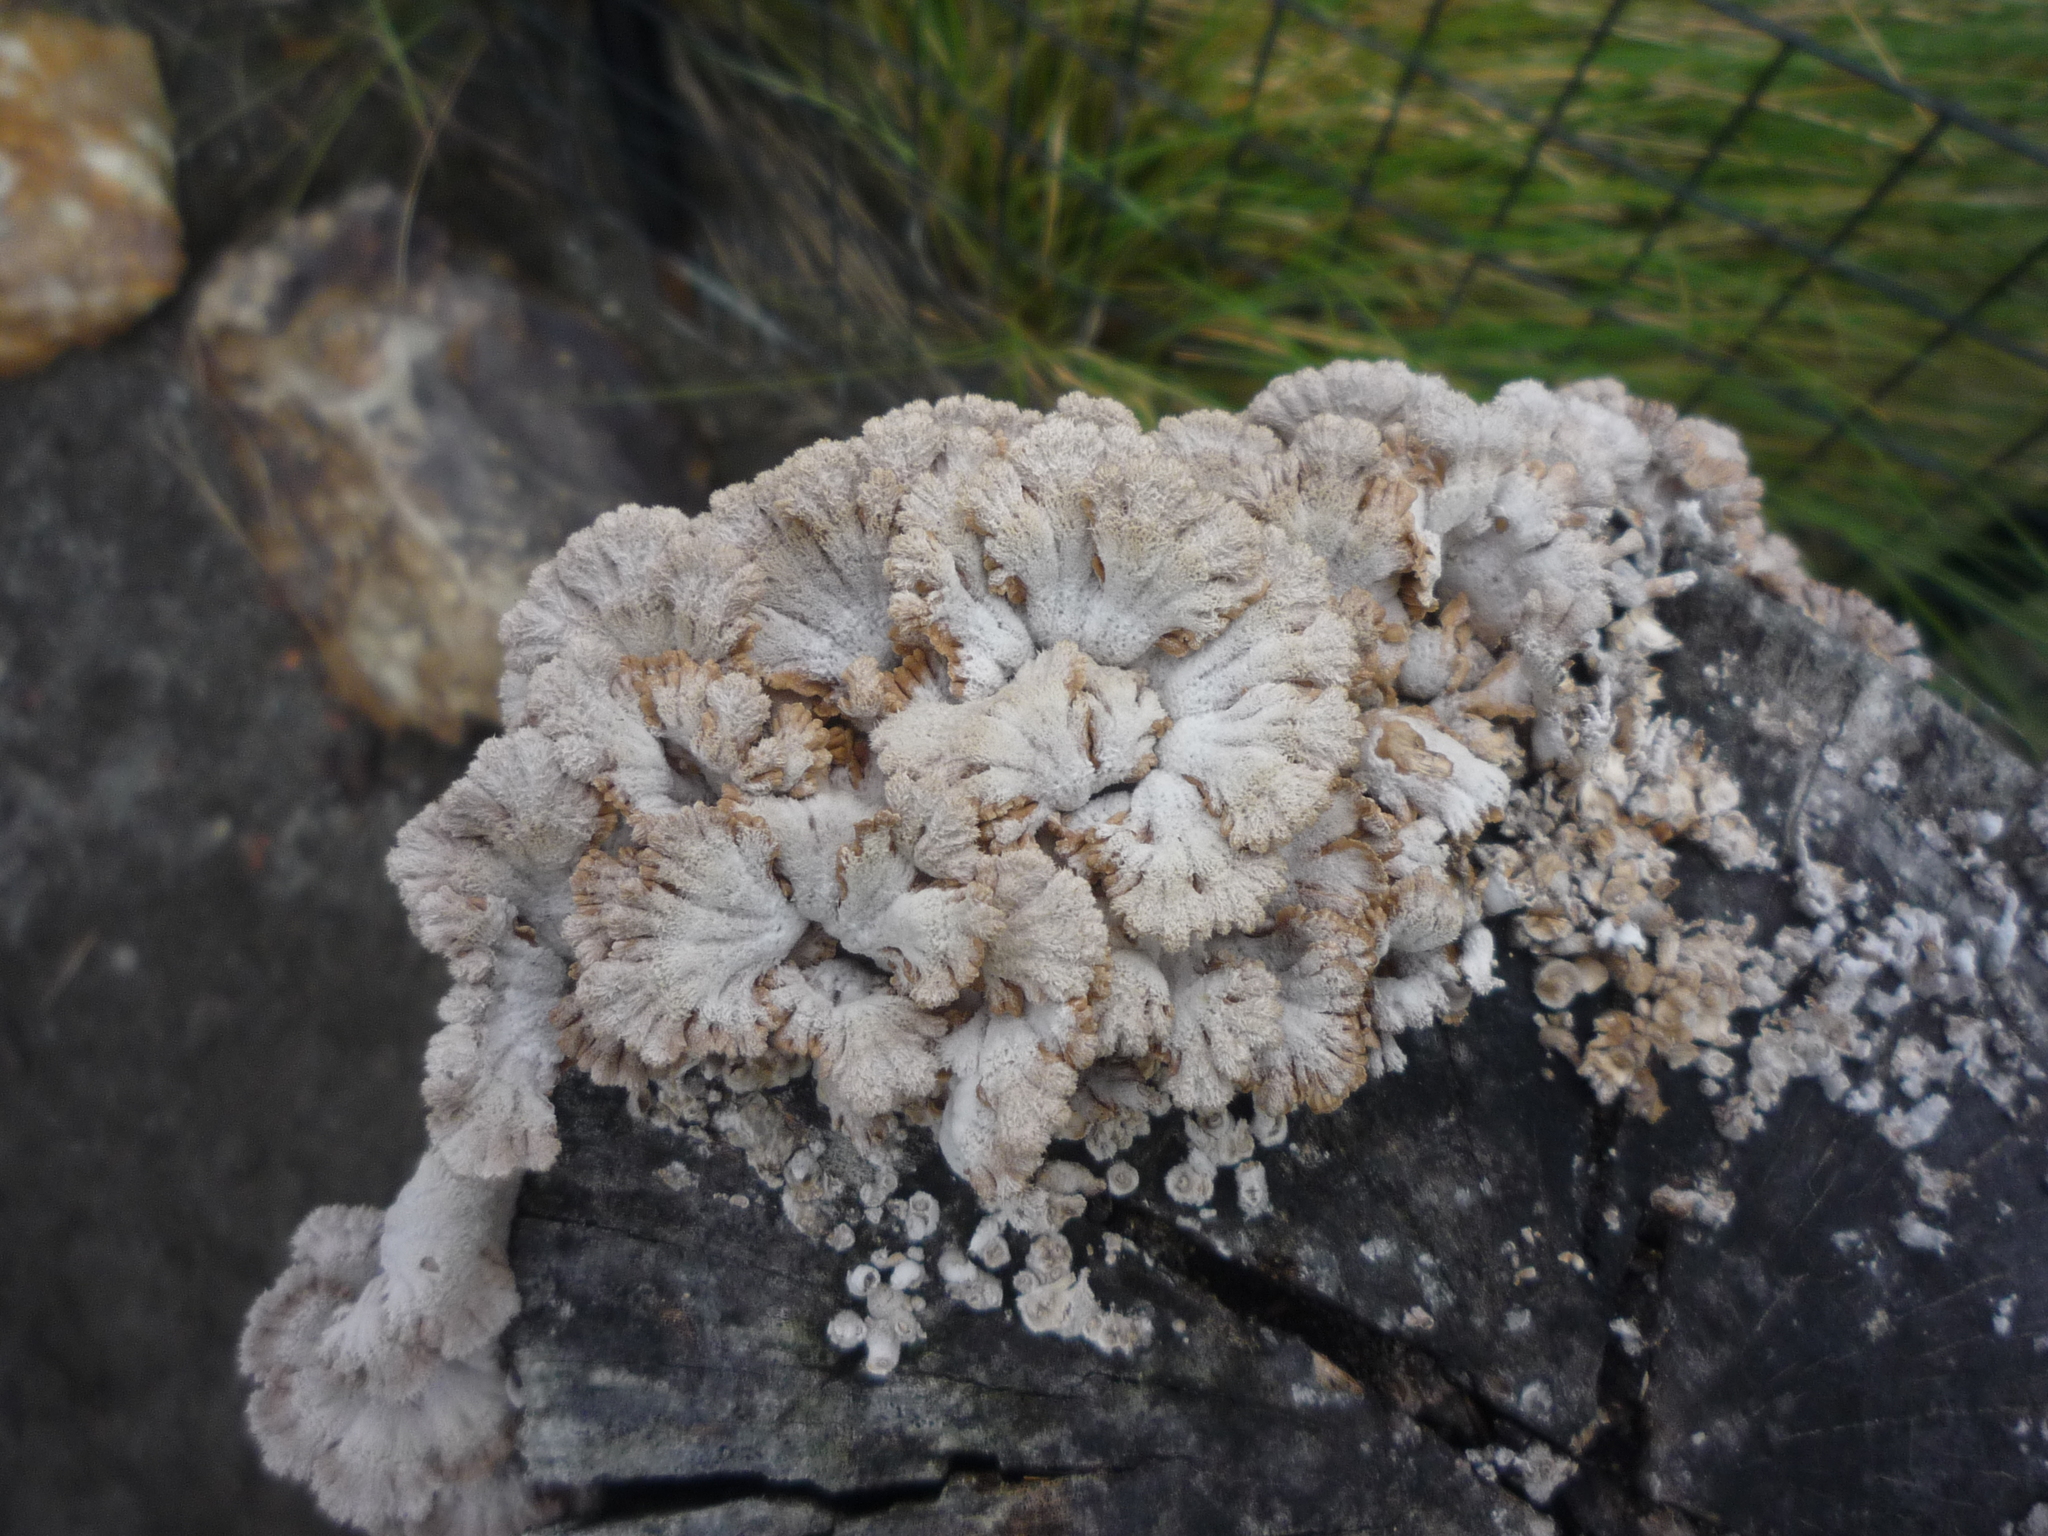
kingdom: Fungi
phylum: Basidiomycota
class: Agaricomycetes
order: Agaricales
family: Schizophyllaceae
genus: Schizophyllum
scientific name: Schizophyllum commune
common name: Common porecrust
